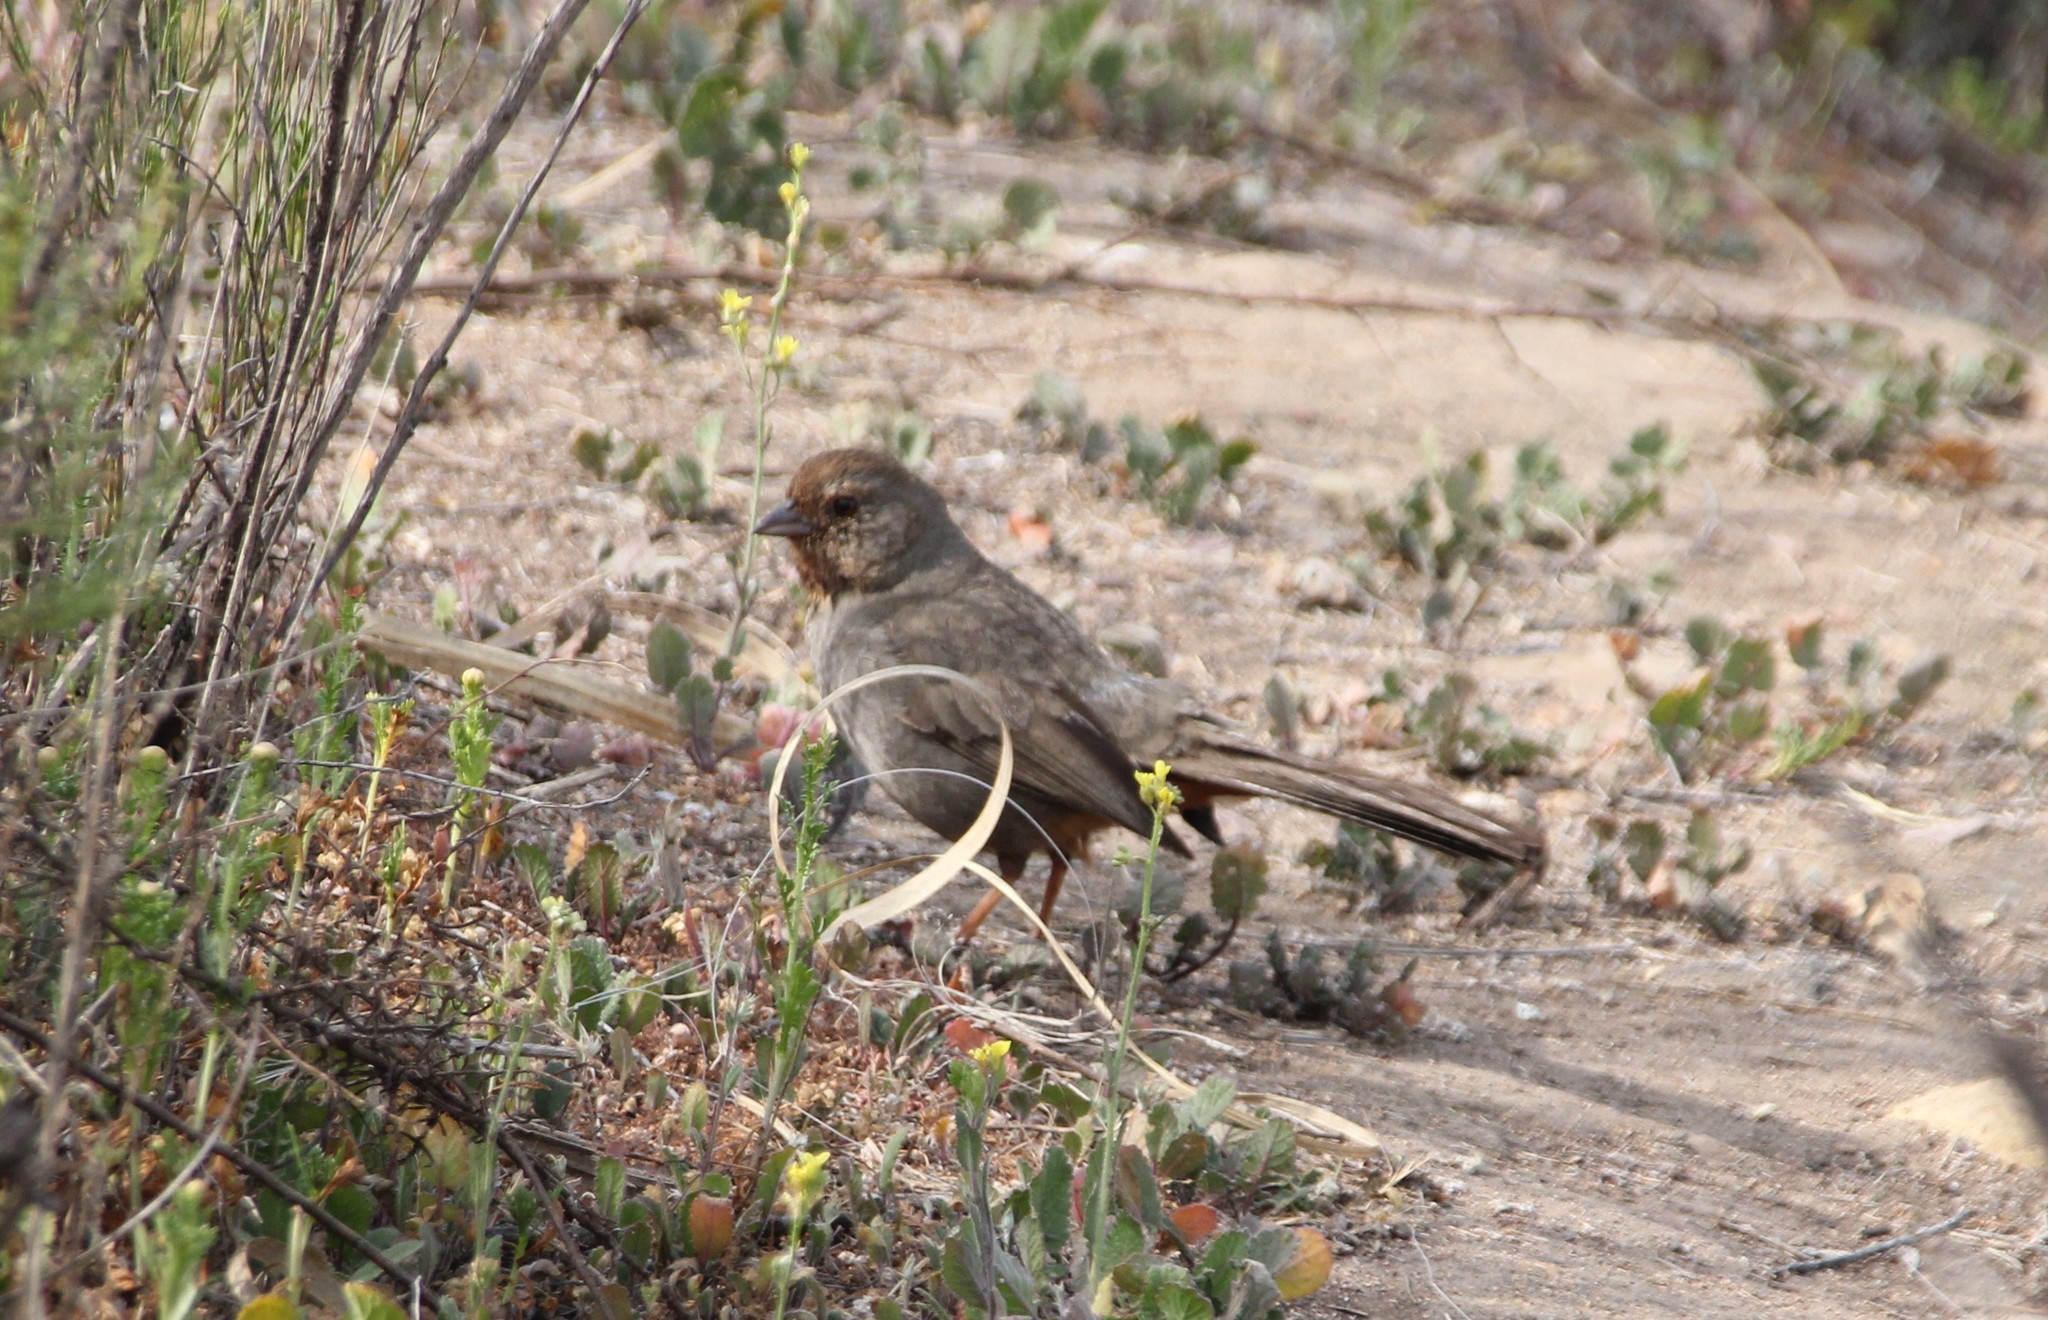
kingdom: Animalia
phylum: Chordata
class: Aves
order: Passeriformes
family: Passerellidae
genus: Melozone
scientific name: Melozone crissalis
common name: California towhee
